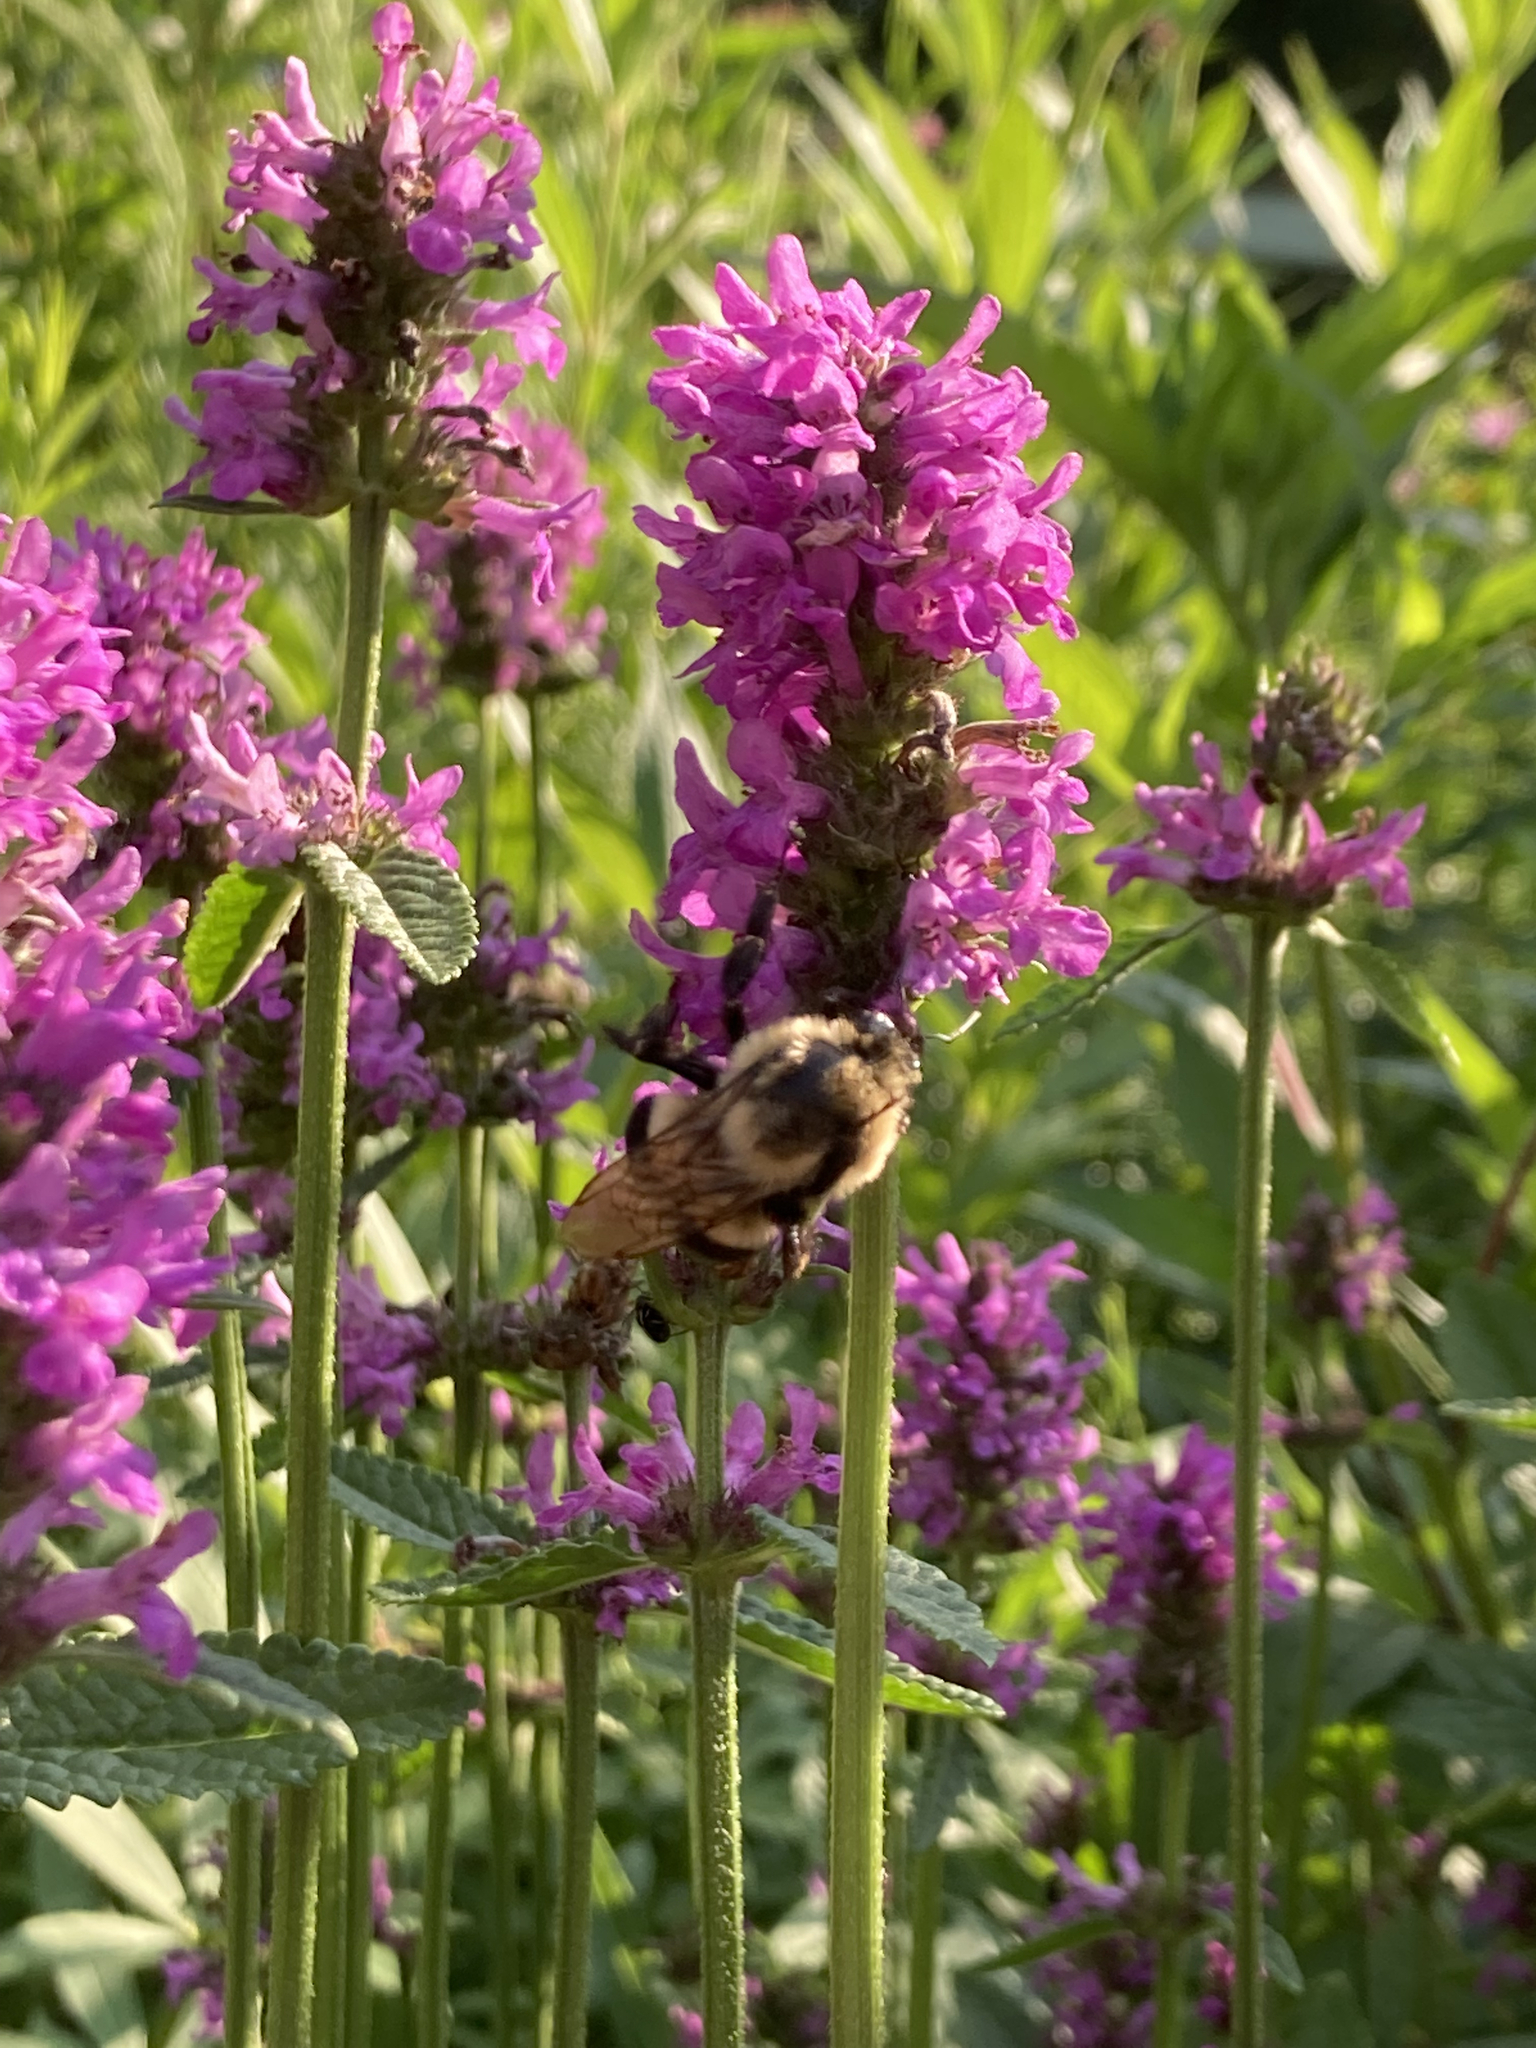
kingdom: Animalia
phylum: Arthropoda
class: Insecta
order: Hymenoptera
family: Apidae
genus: Bombus
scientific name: Bombus impatiens
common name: Common eastern bumble bee
